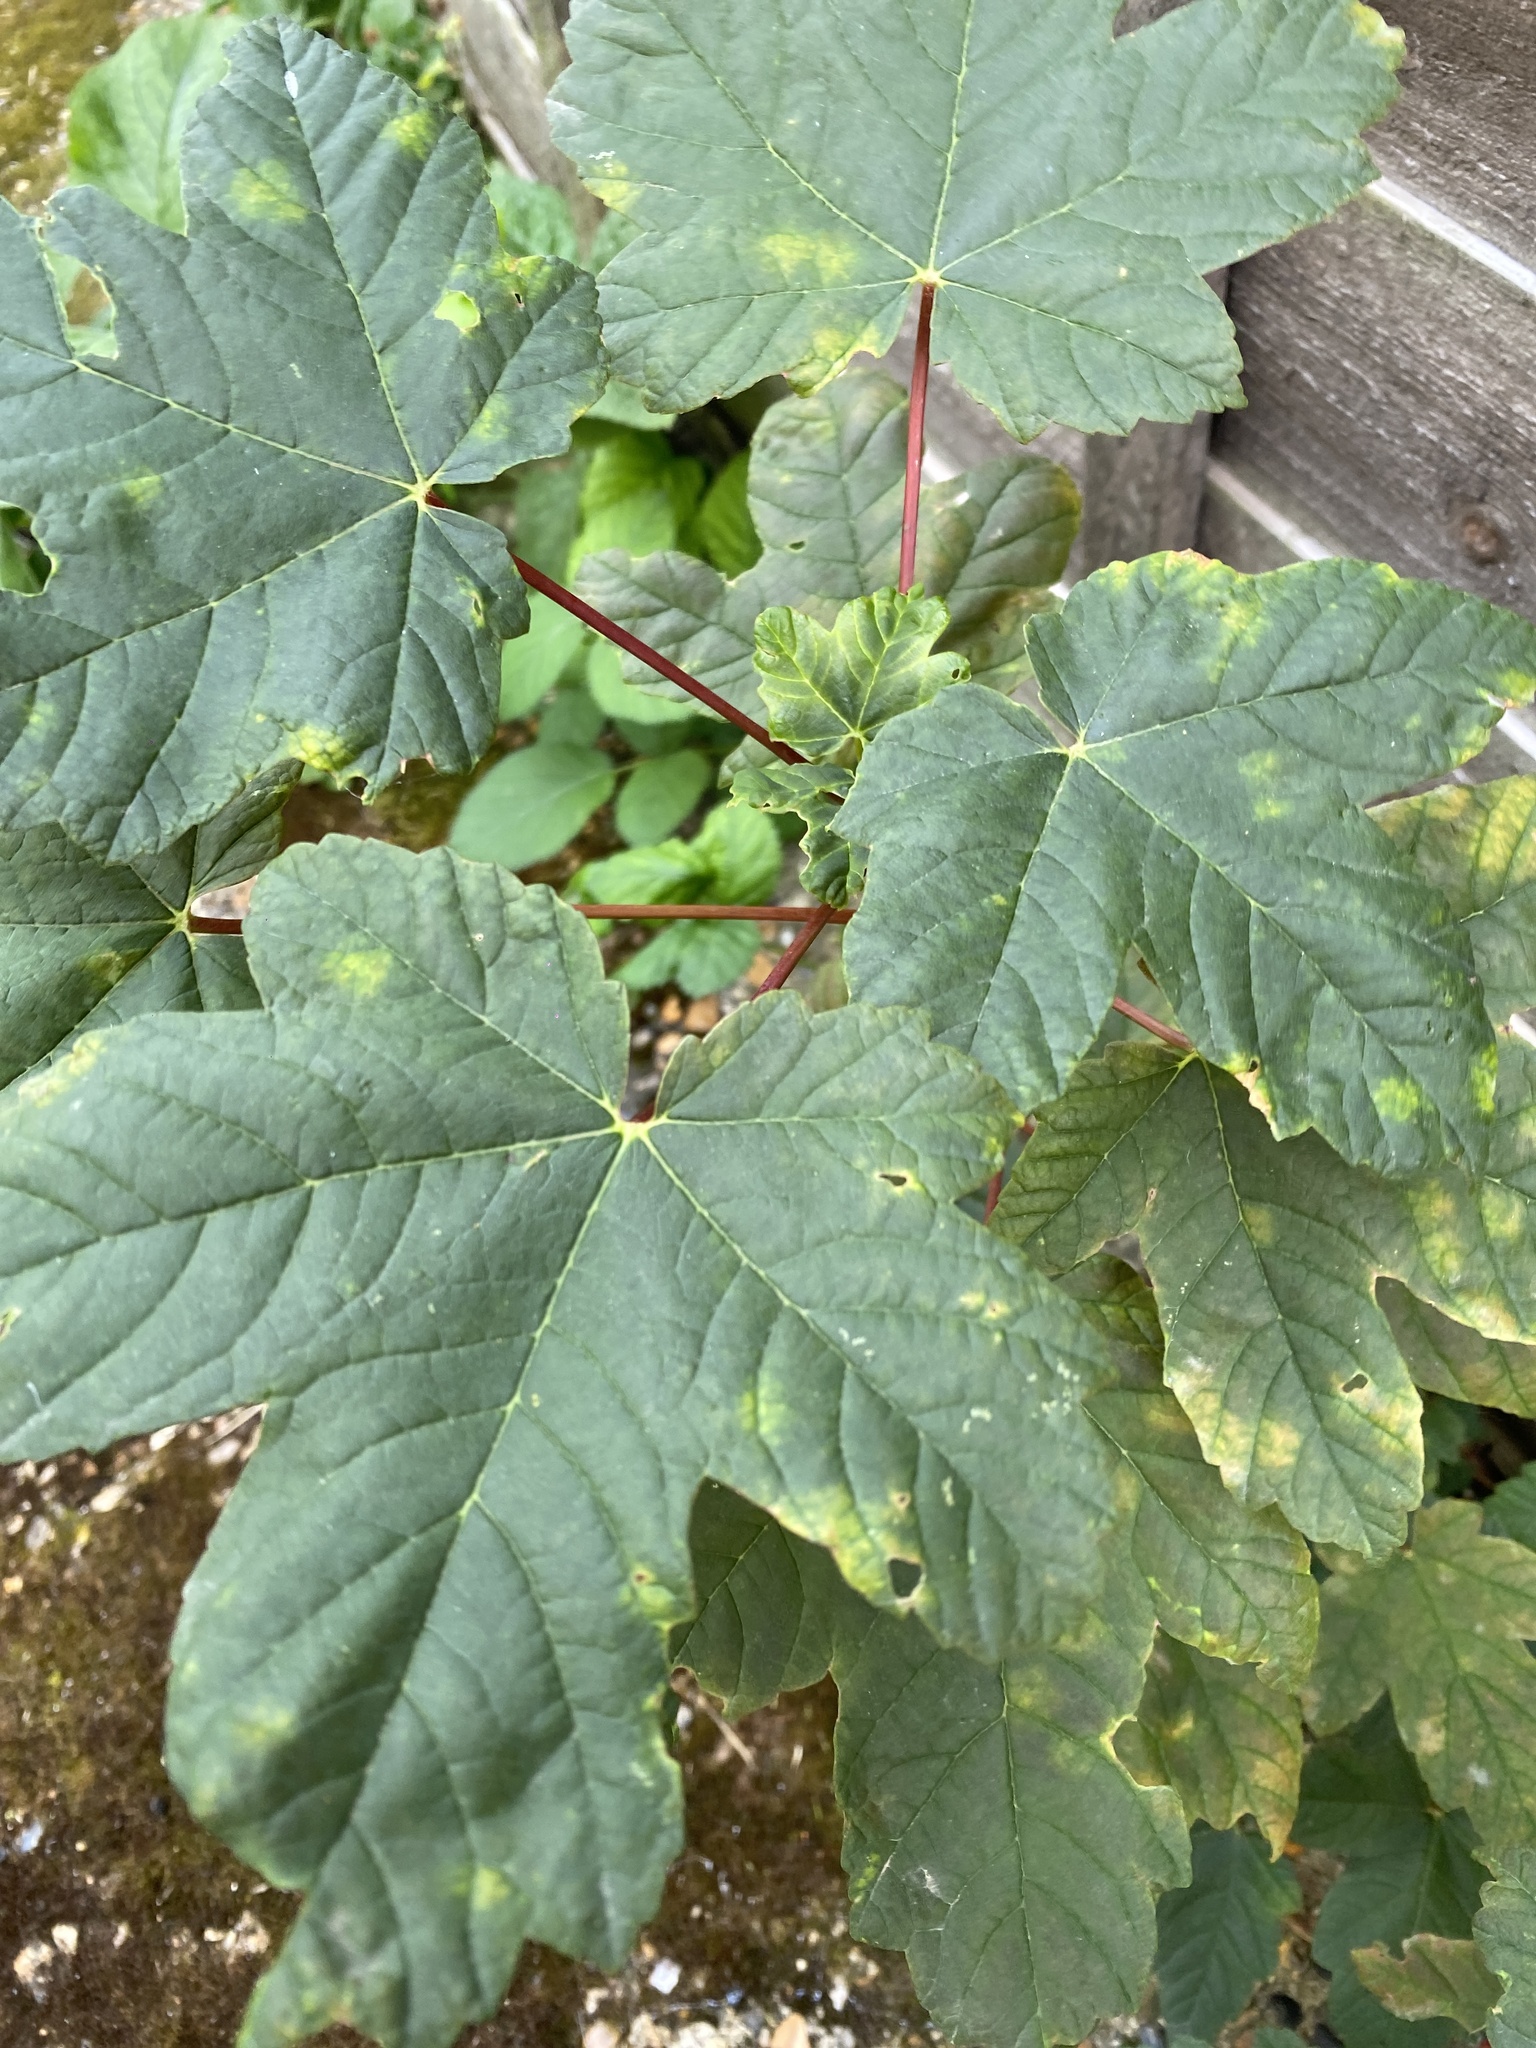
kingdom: Plantae
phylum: Tracheophyta
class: Magnoliopsida
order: Sapindales
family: Sapindaceae
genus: Acer
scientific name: Acer pseudoplatanus
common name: Sycamore
